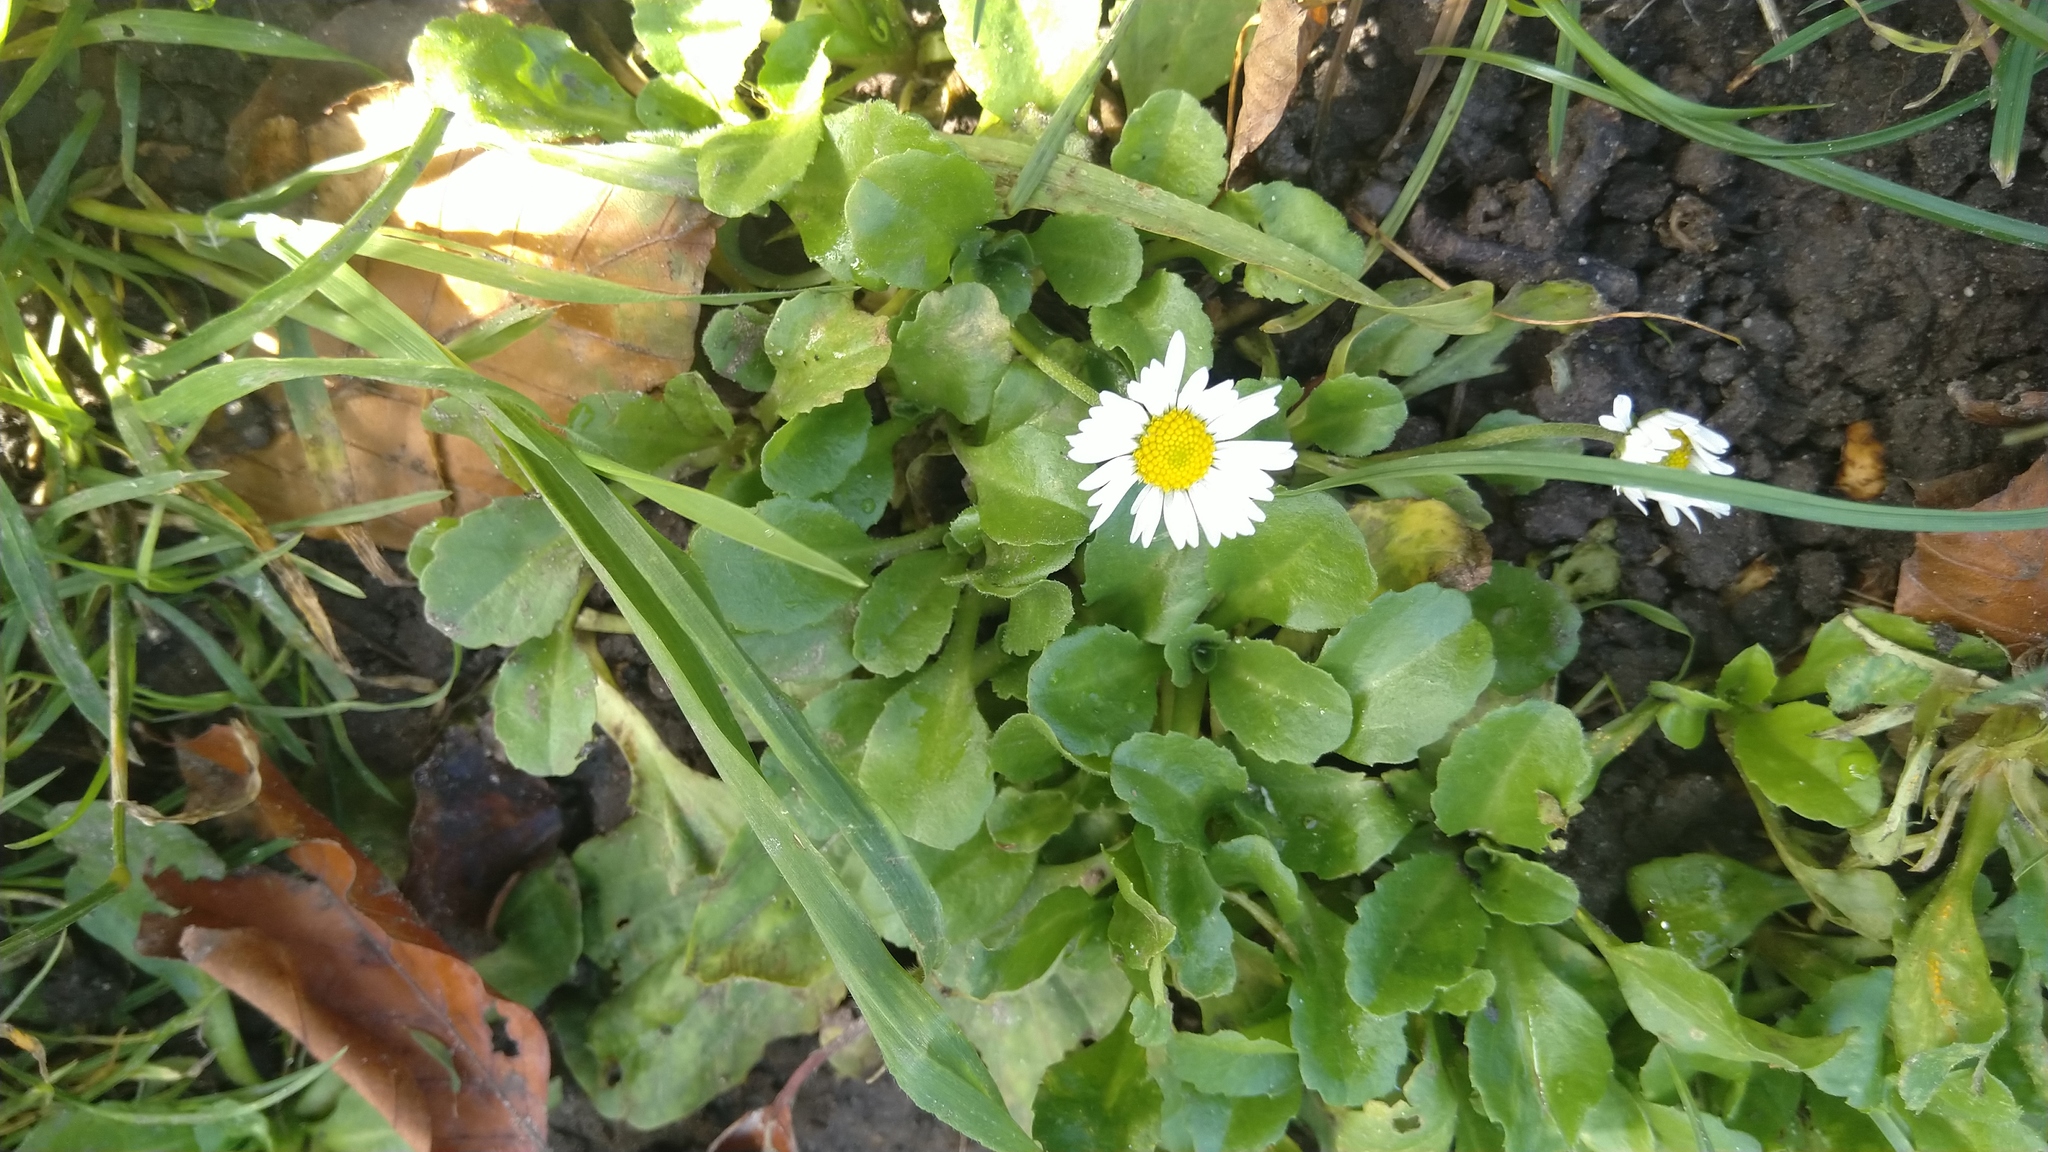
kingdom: Plantae
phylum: Tracheophyta
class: Magnoliopsida
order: Asterales
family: Asteraceae
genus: Bellis
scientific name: Bellis perennis
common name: Lawndaisy
